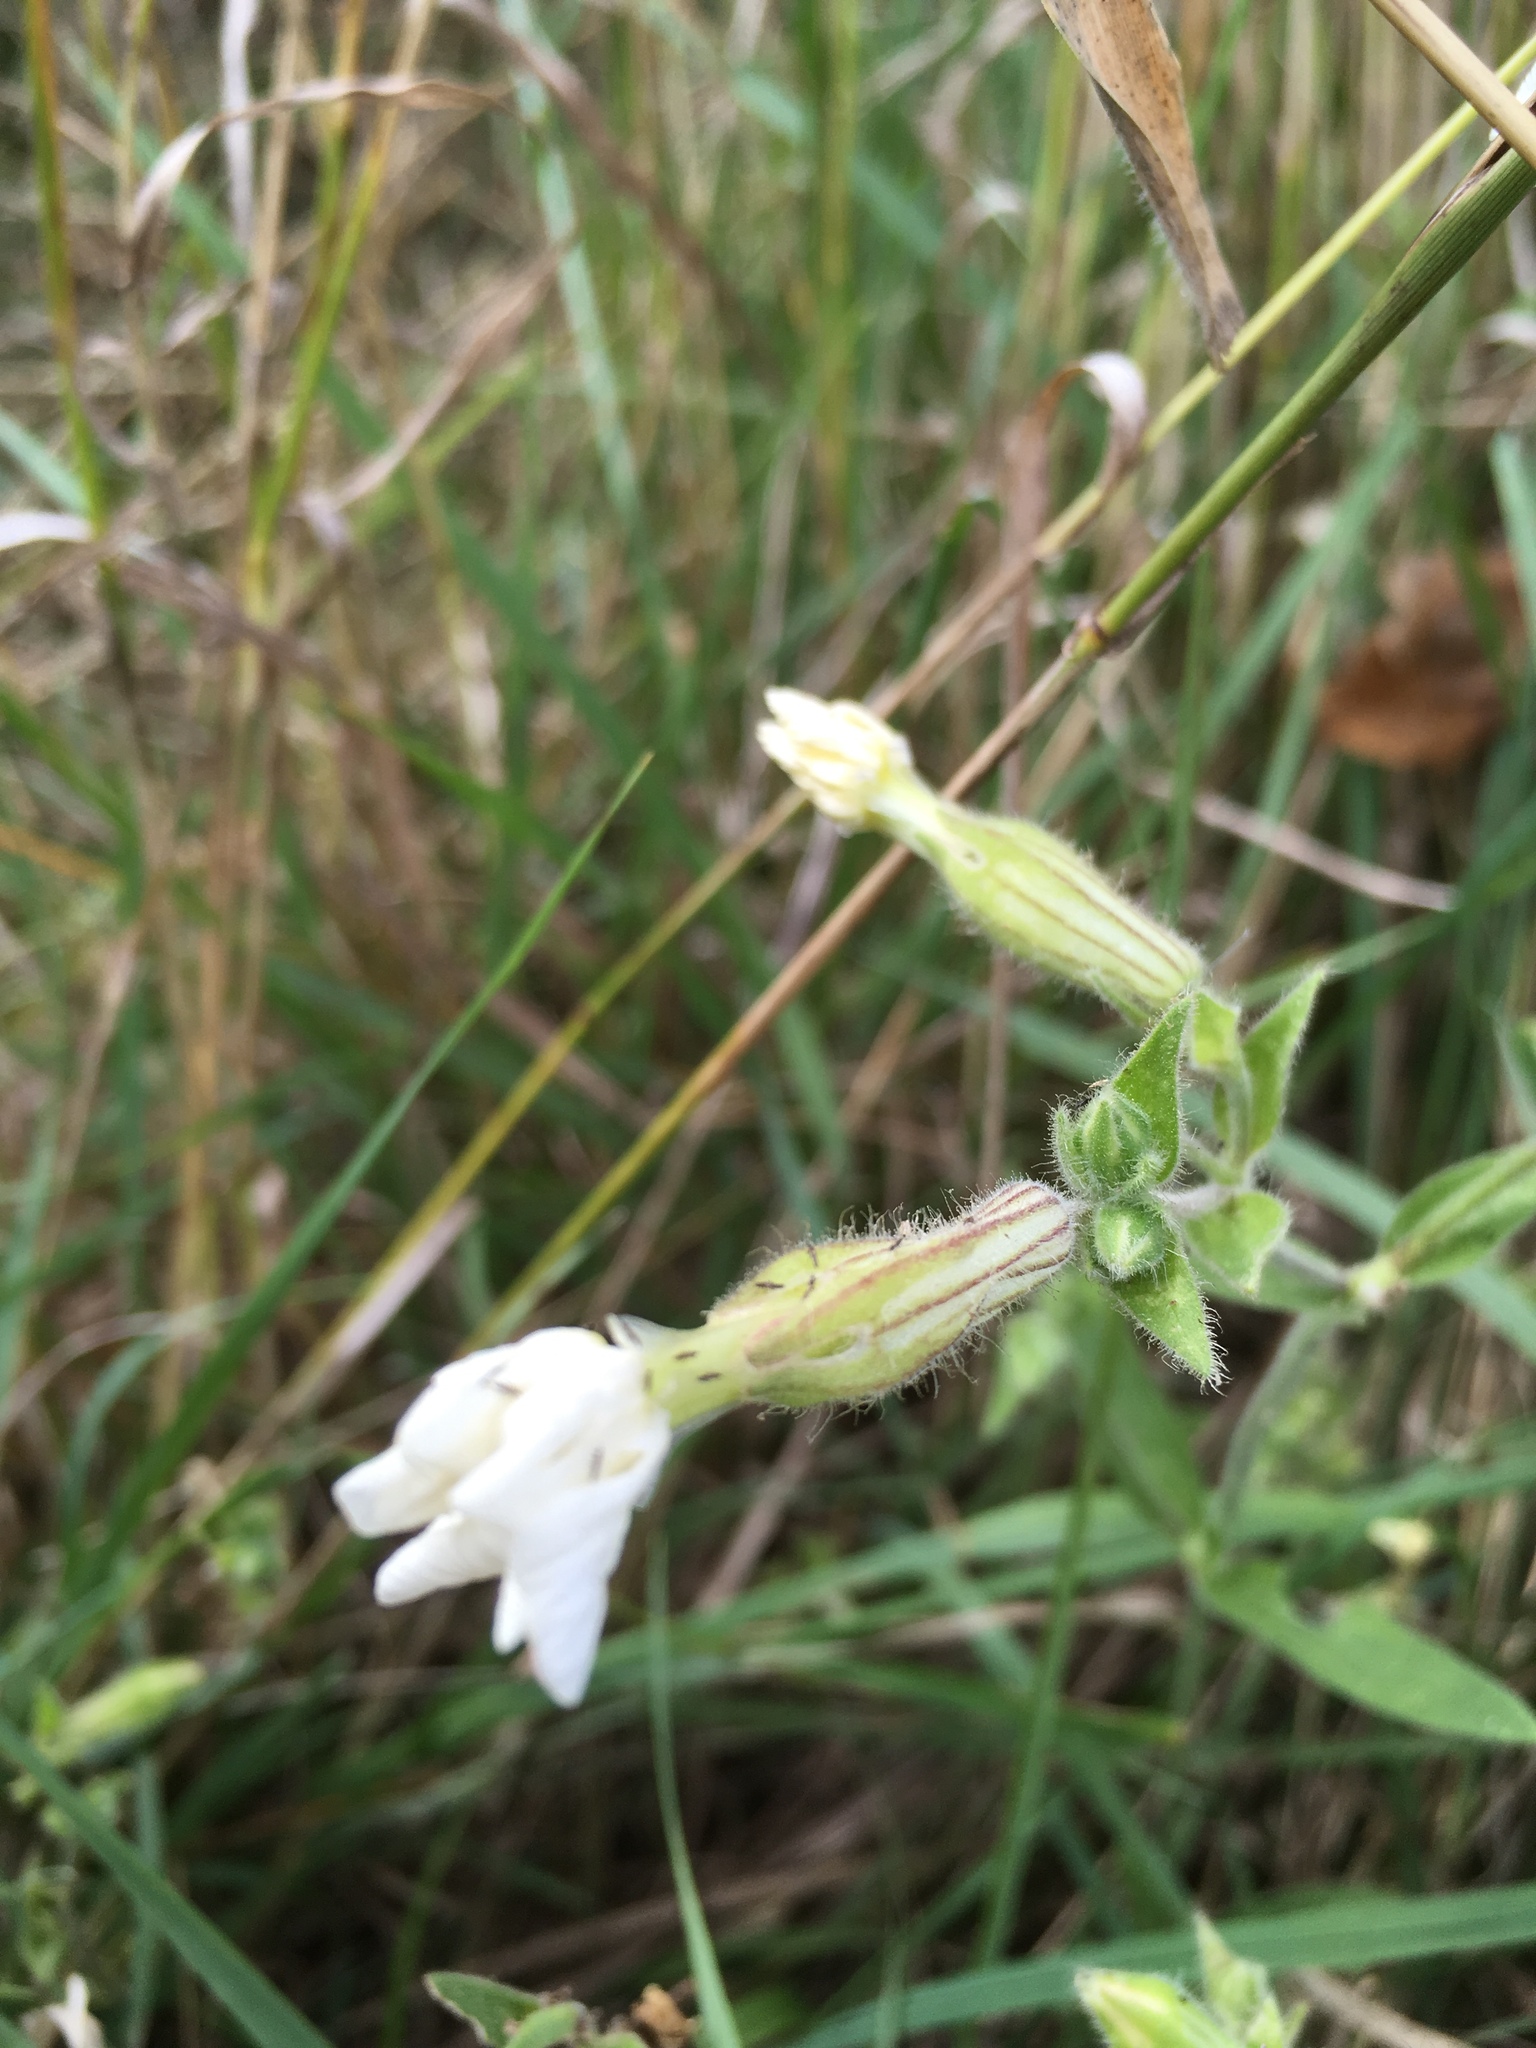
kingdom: Plantae
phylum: Tracheophyta
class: Magnoliopsida
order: Caryophyllales
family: Caryophyllaceae
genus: Silene
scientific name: Silene latifolia
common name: White campion
